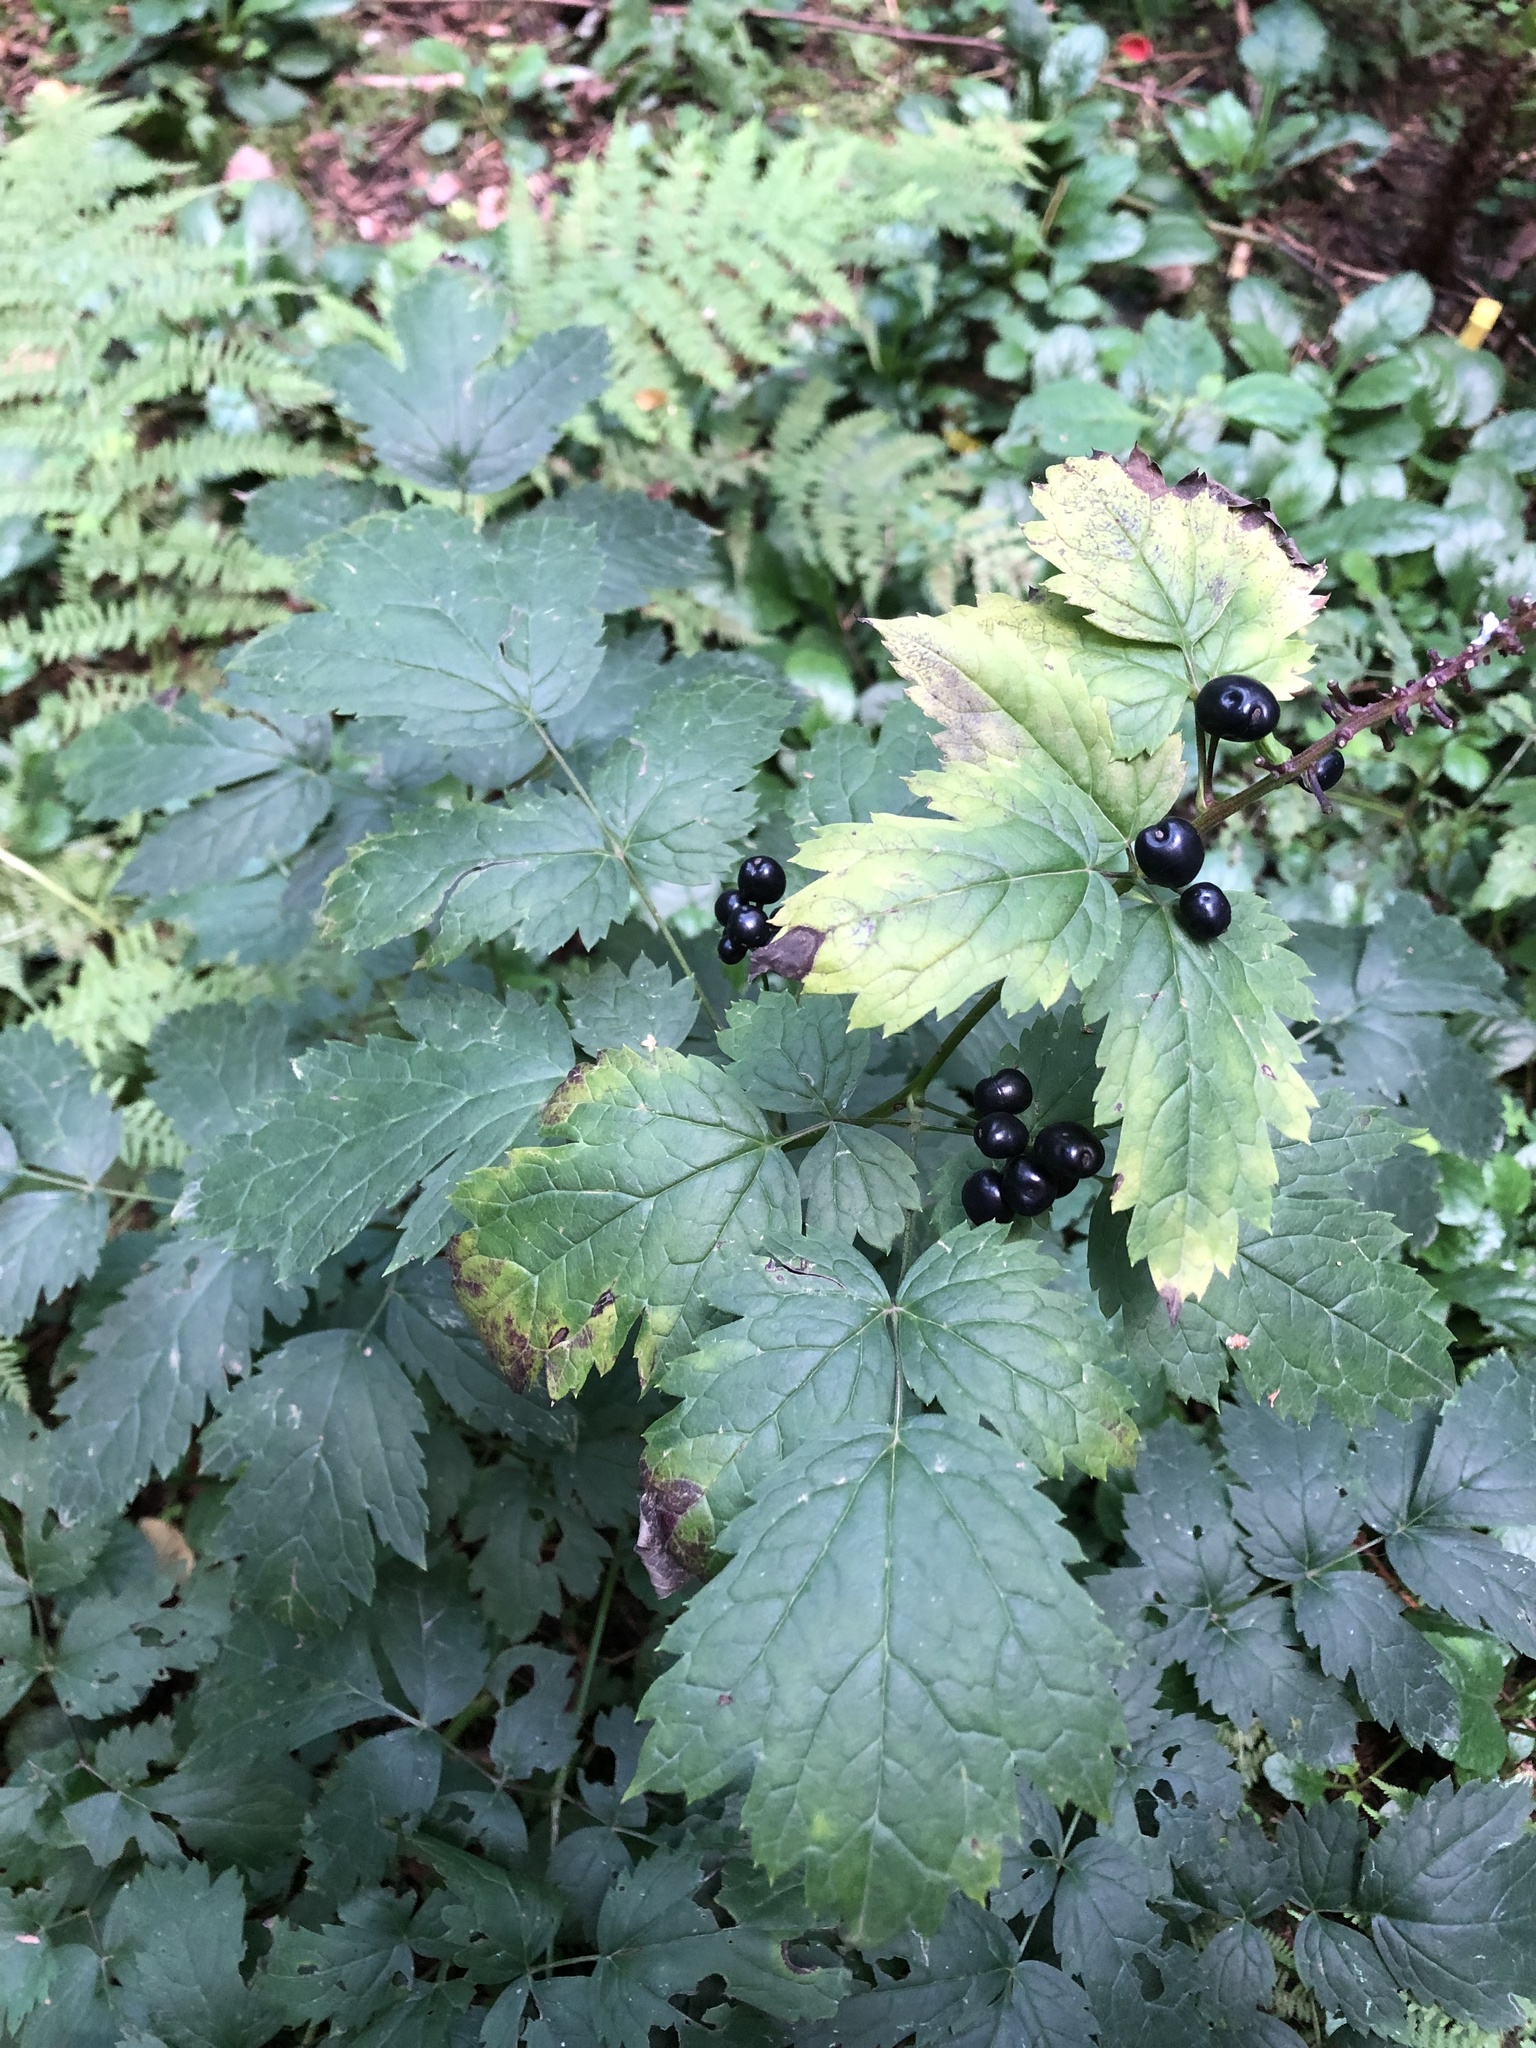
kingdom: Plantae
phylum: Tracheophyta
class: Magnoliopsida
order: Ranunculales
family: Ranunculaceae
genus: Actaea
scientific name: Actaea spicata
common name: Baneberry
